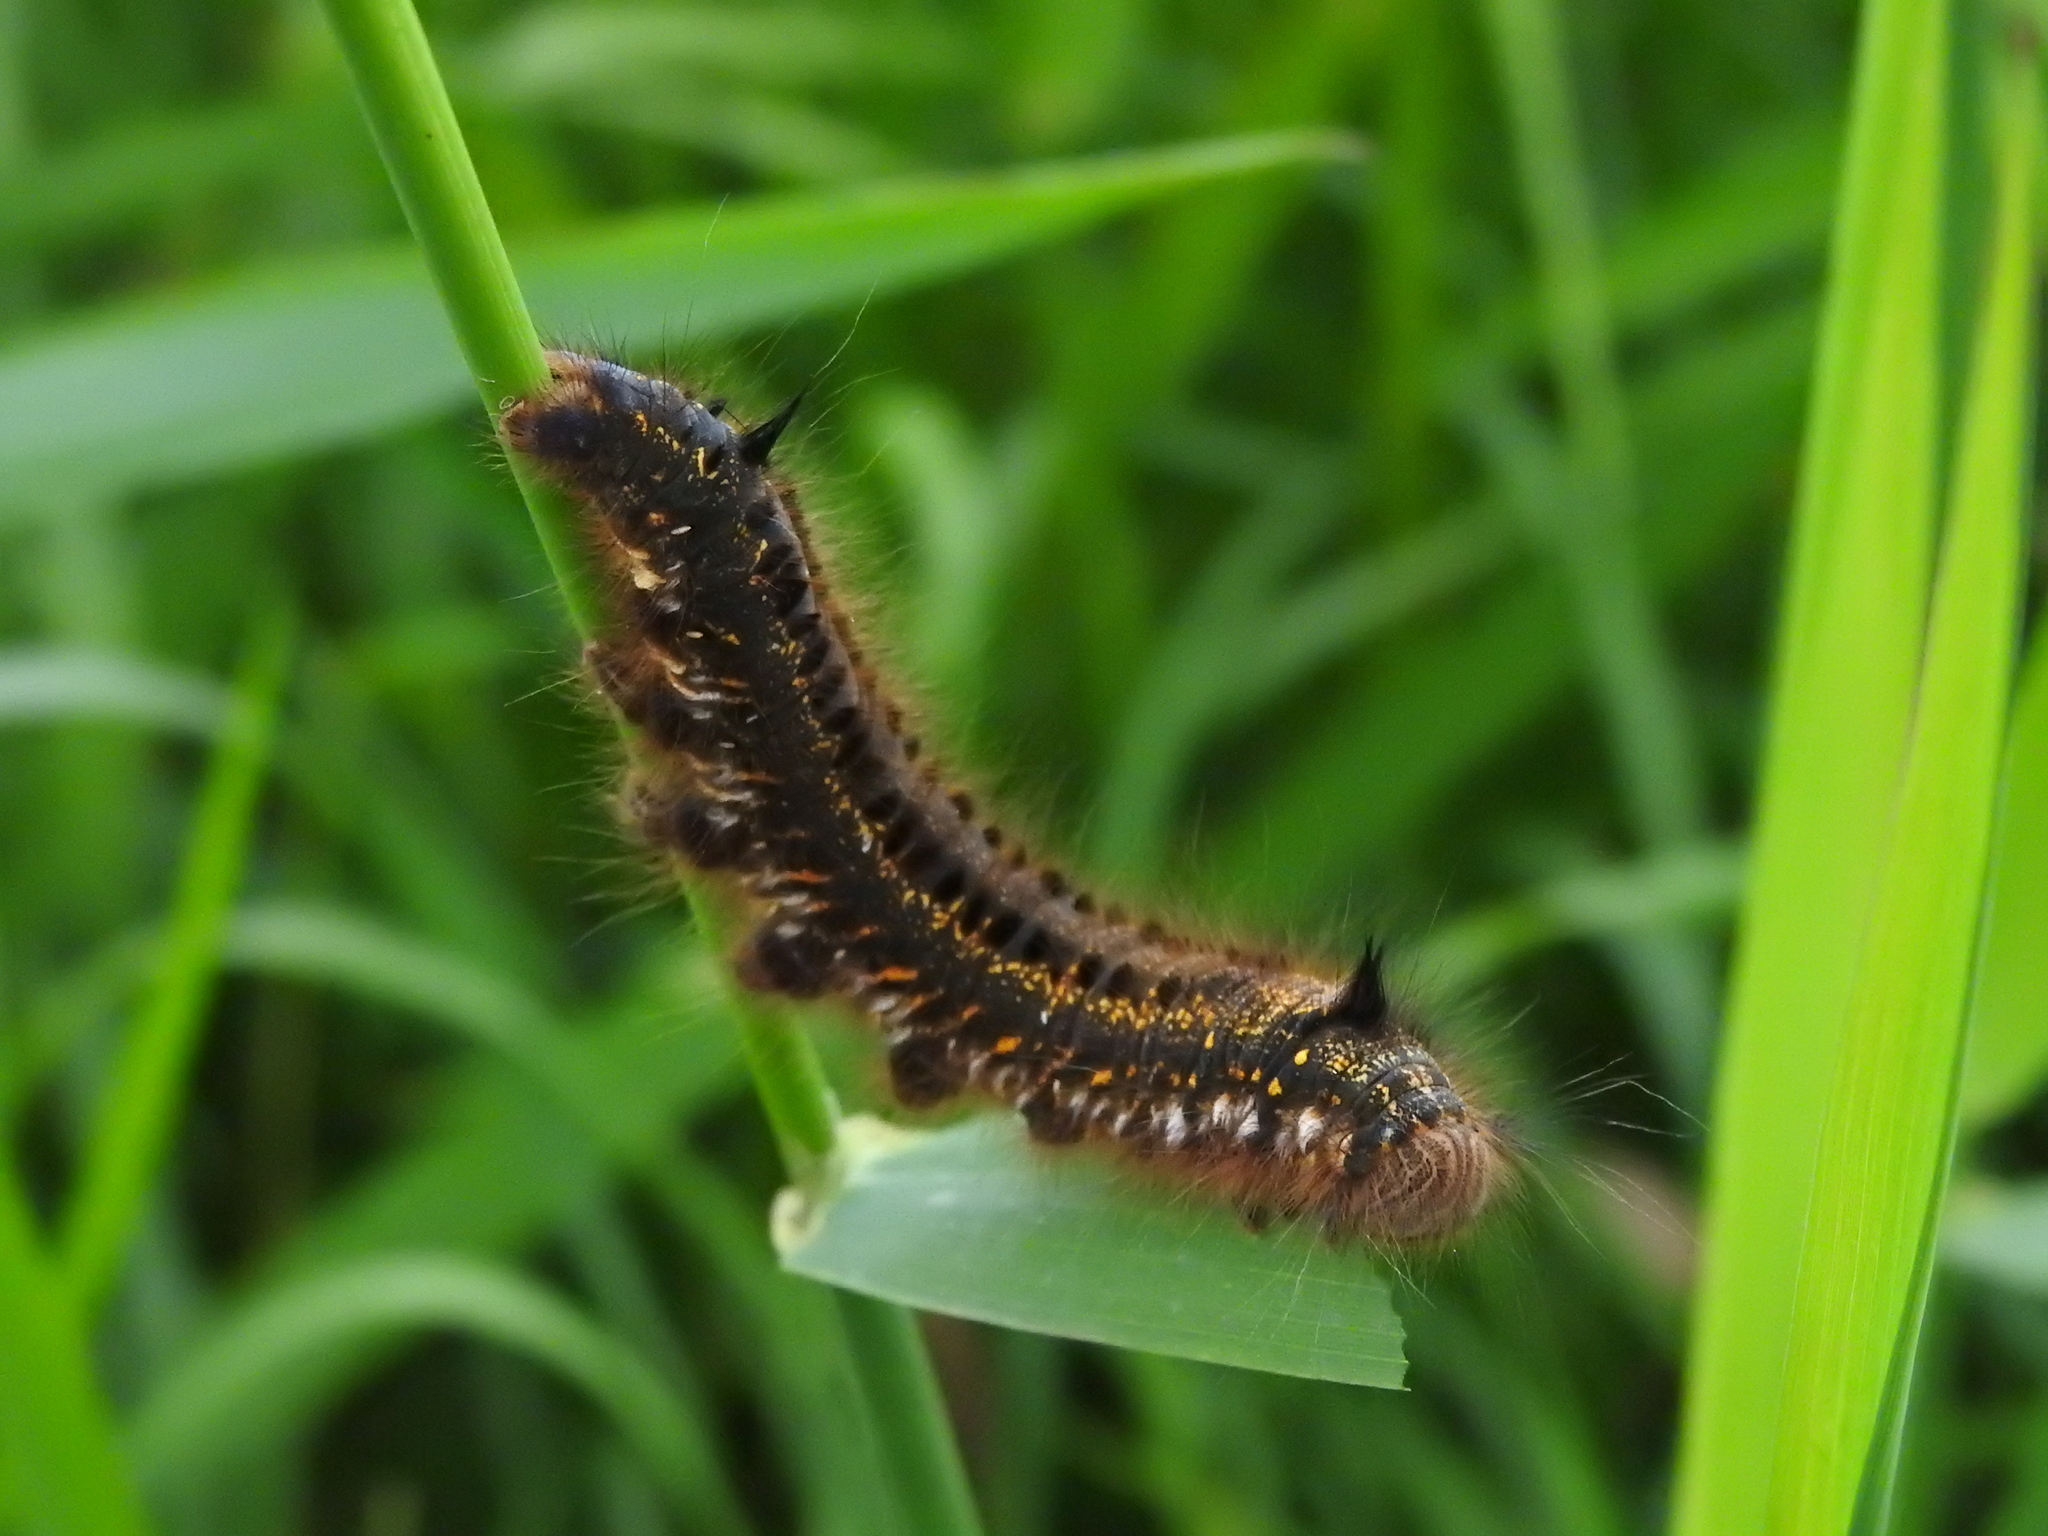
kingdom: Animalia
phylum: Arthropoda
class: Insecta
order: Lepidoptera
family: Lasiocampidae
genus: Euthrix
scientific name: Euthrix potatoria
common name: Drinker
